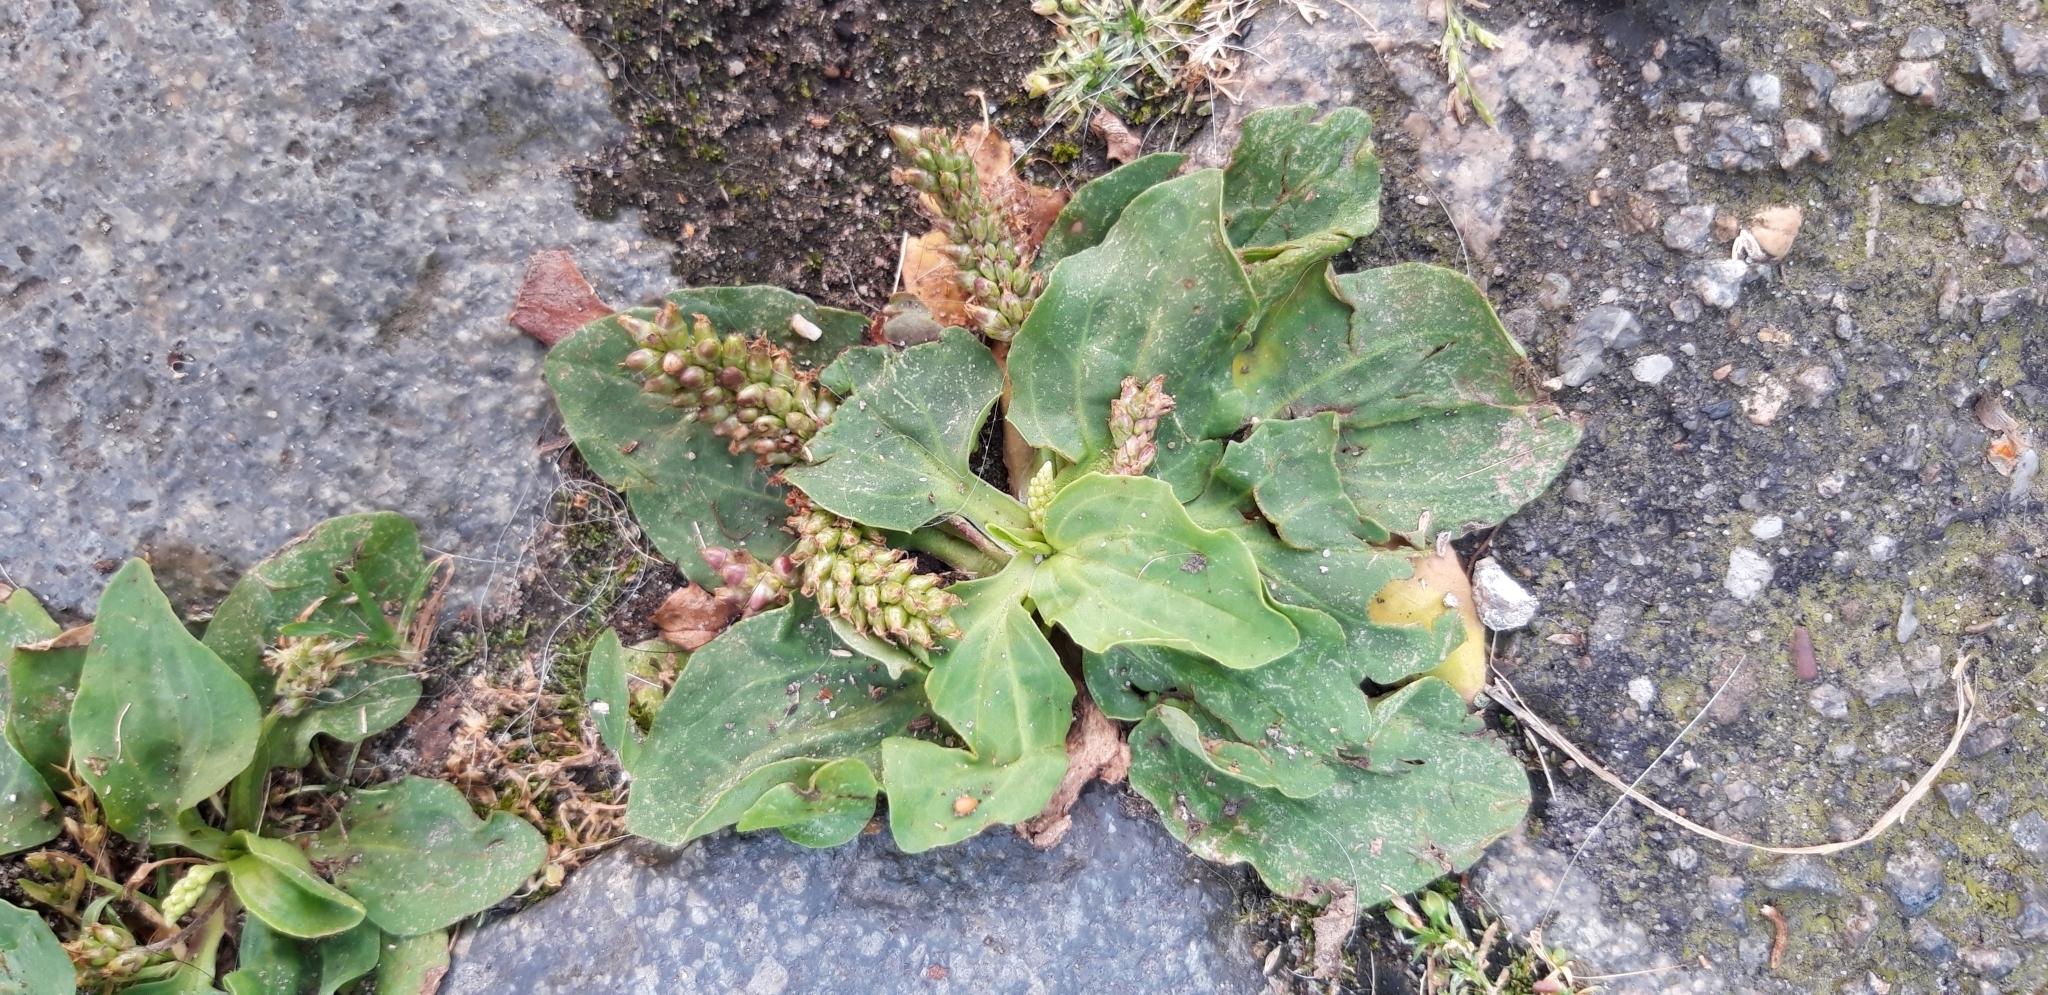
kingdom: Plantae
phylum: Tracheophyta
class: Magnoliopsida
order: Lamiales
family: Plantaginaceae
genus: Plantago
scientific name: Plantago major
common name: Common plantain
